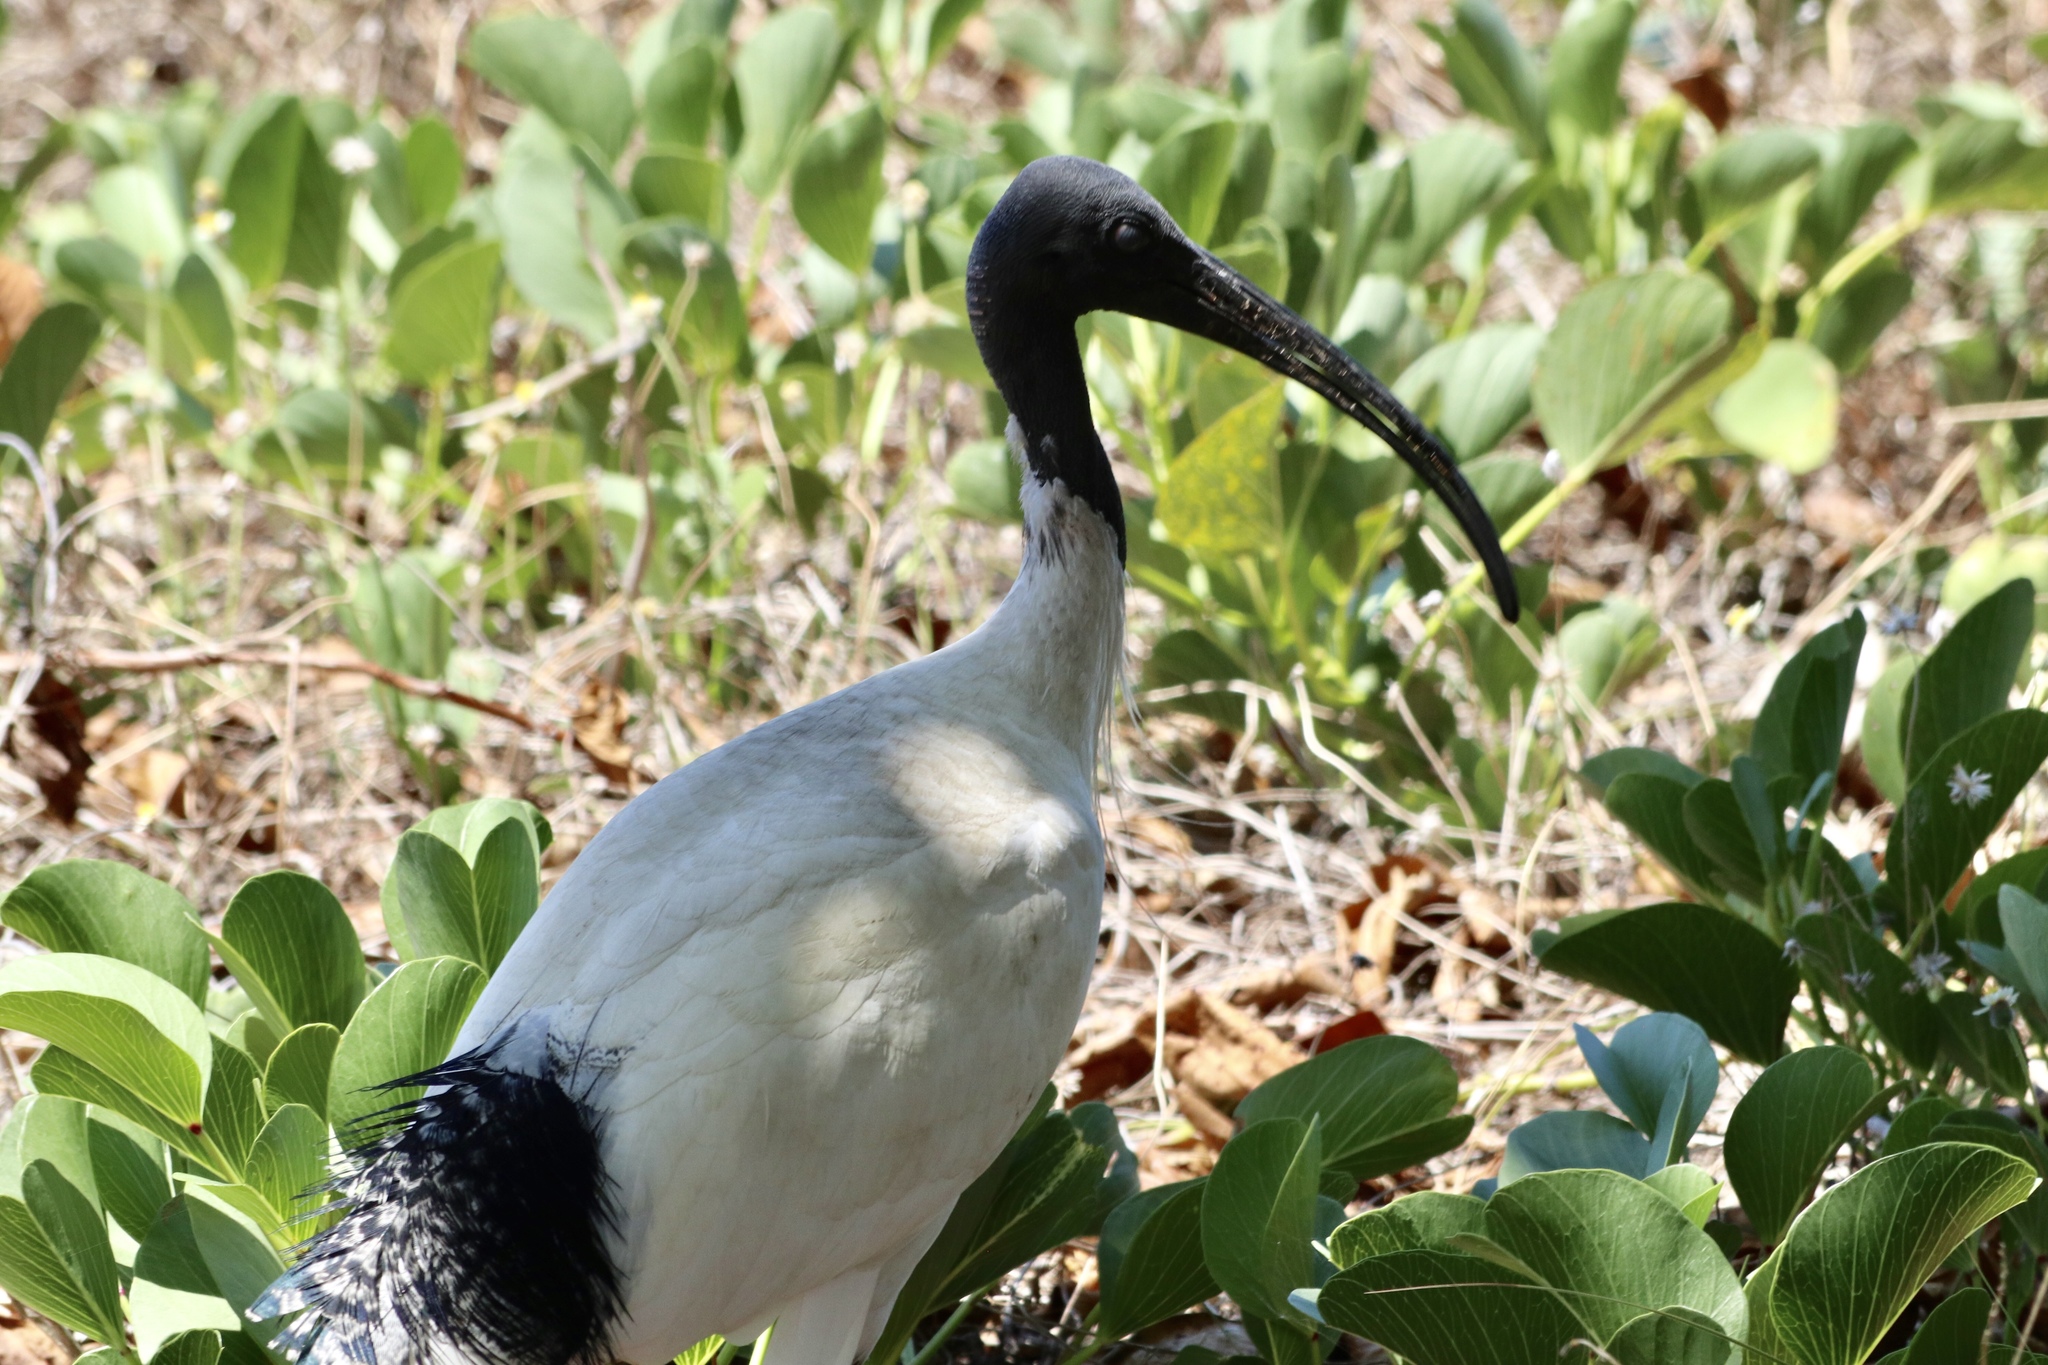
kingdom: Animalia
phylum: Chordata
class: Aves
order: Pelecaniformes
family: Threskiornithidae
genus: Threskiornis
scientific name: Threskiornis molucca
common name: Australian white ibis
